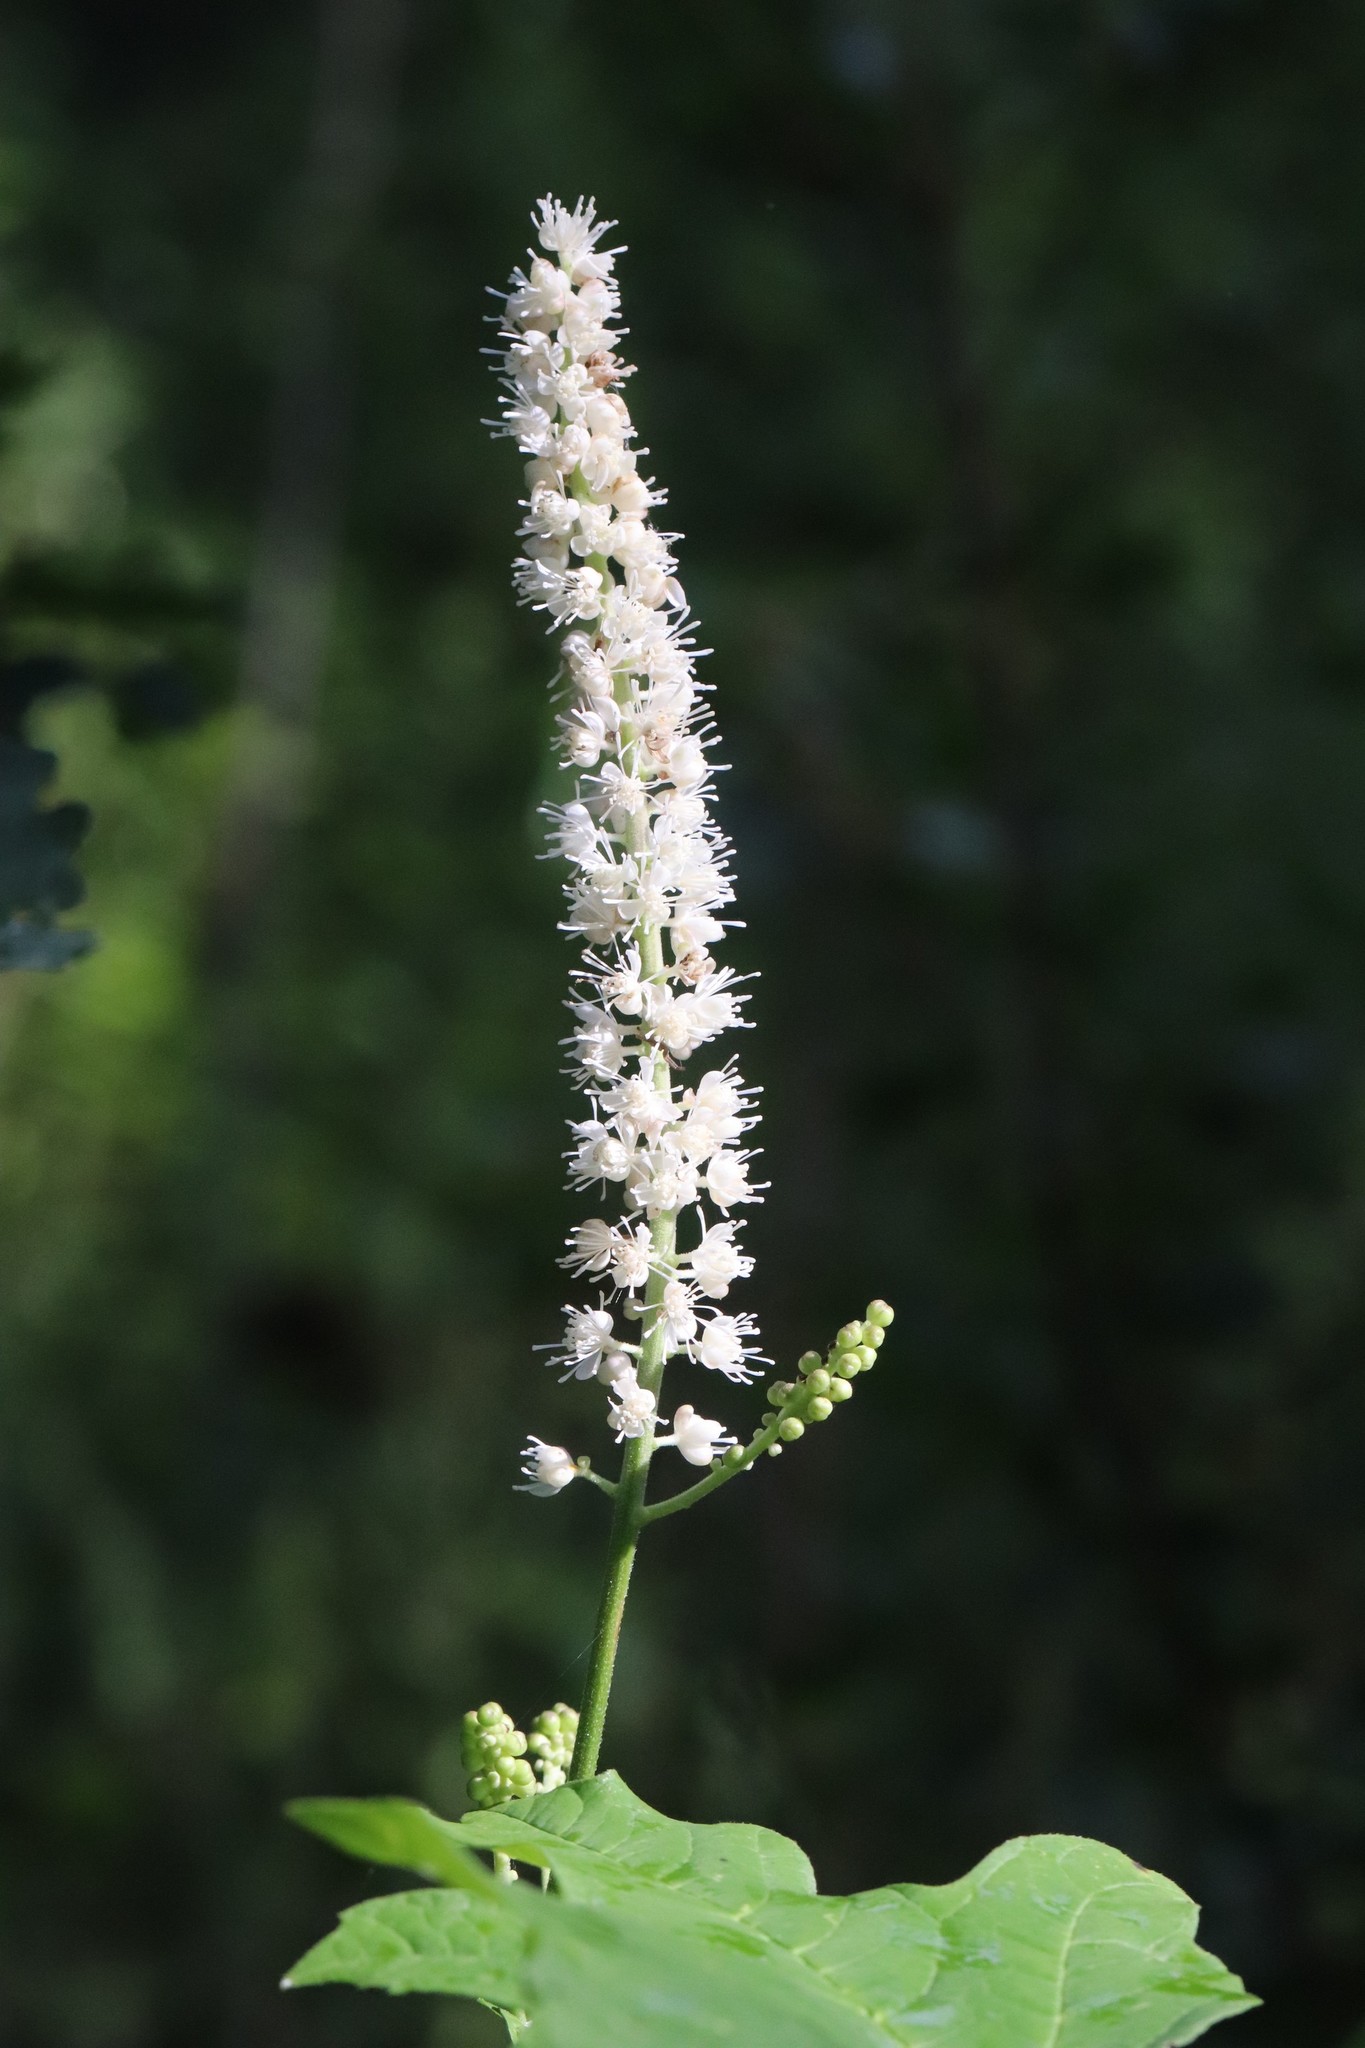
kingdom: Plantae
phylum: Tracheophyta
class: Magnoliopsida
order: Ranunculales
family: Ranunculaceae
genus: Actaea
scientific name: Actaea simplex
